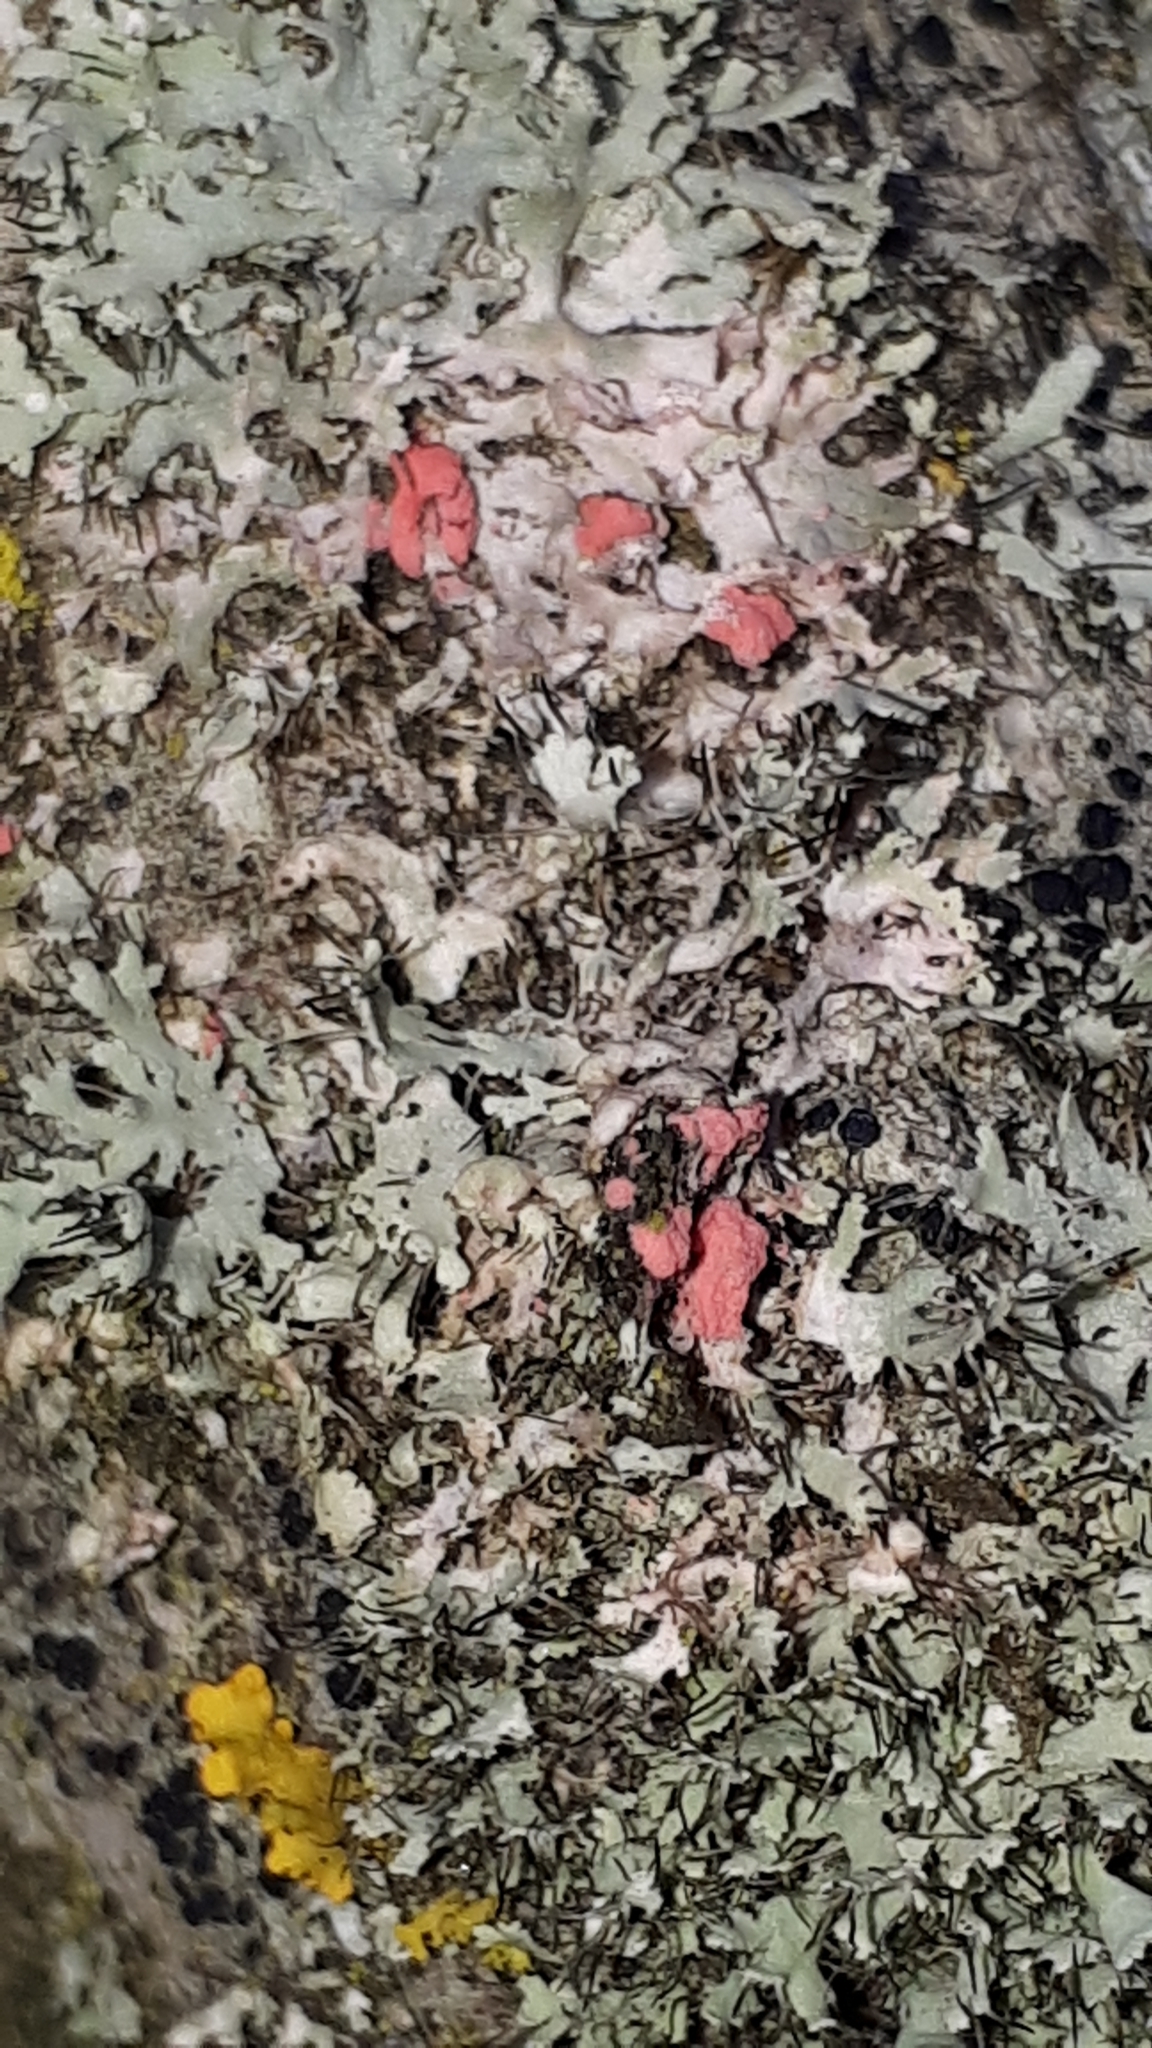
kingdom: Fungi
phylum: Ascomycota
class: Sordariomycetes
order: Hypocreales
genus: Illosporiopsis
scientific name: Illosporiopsis christiansenii
